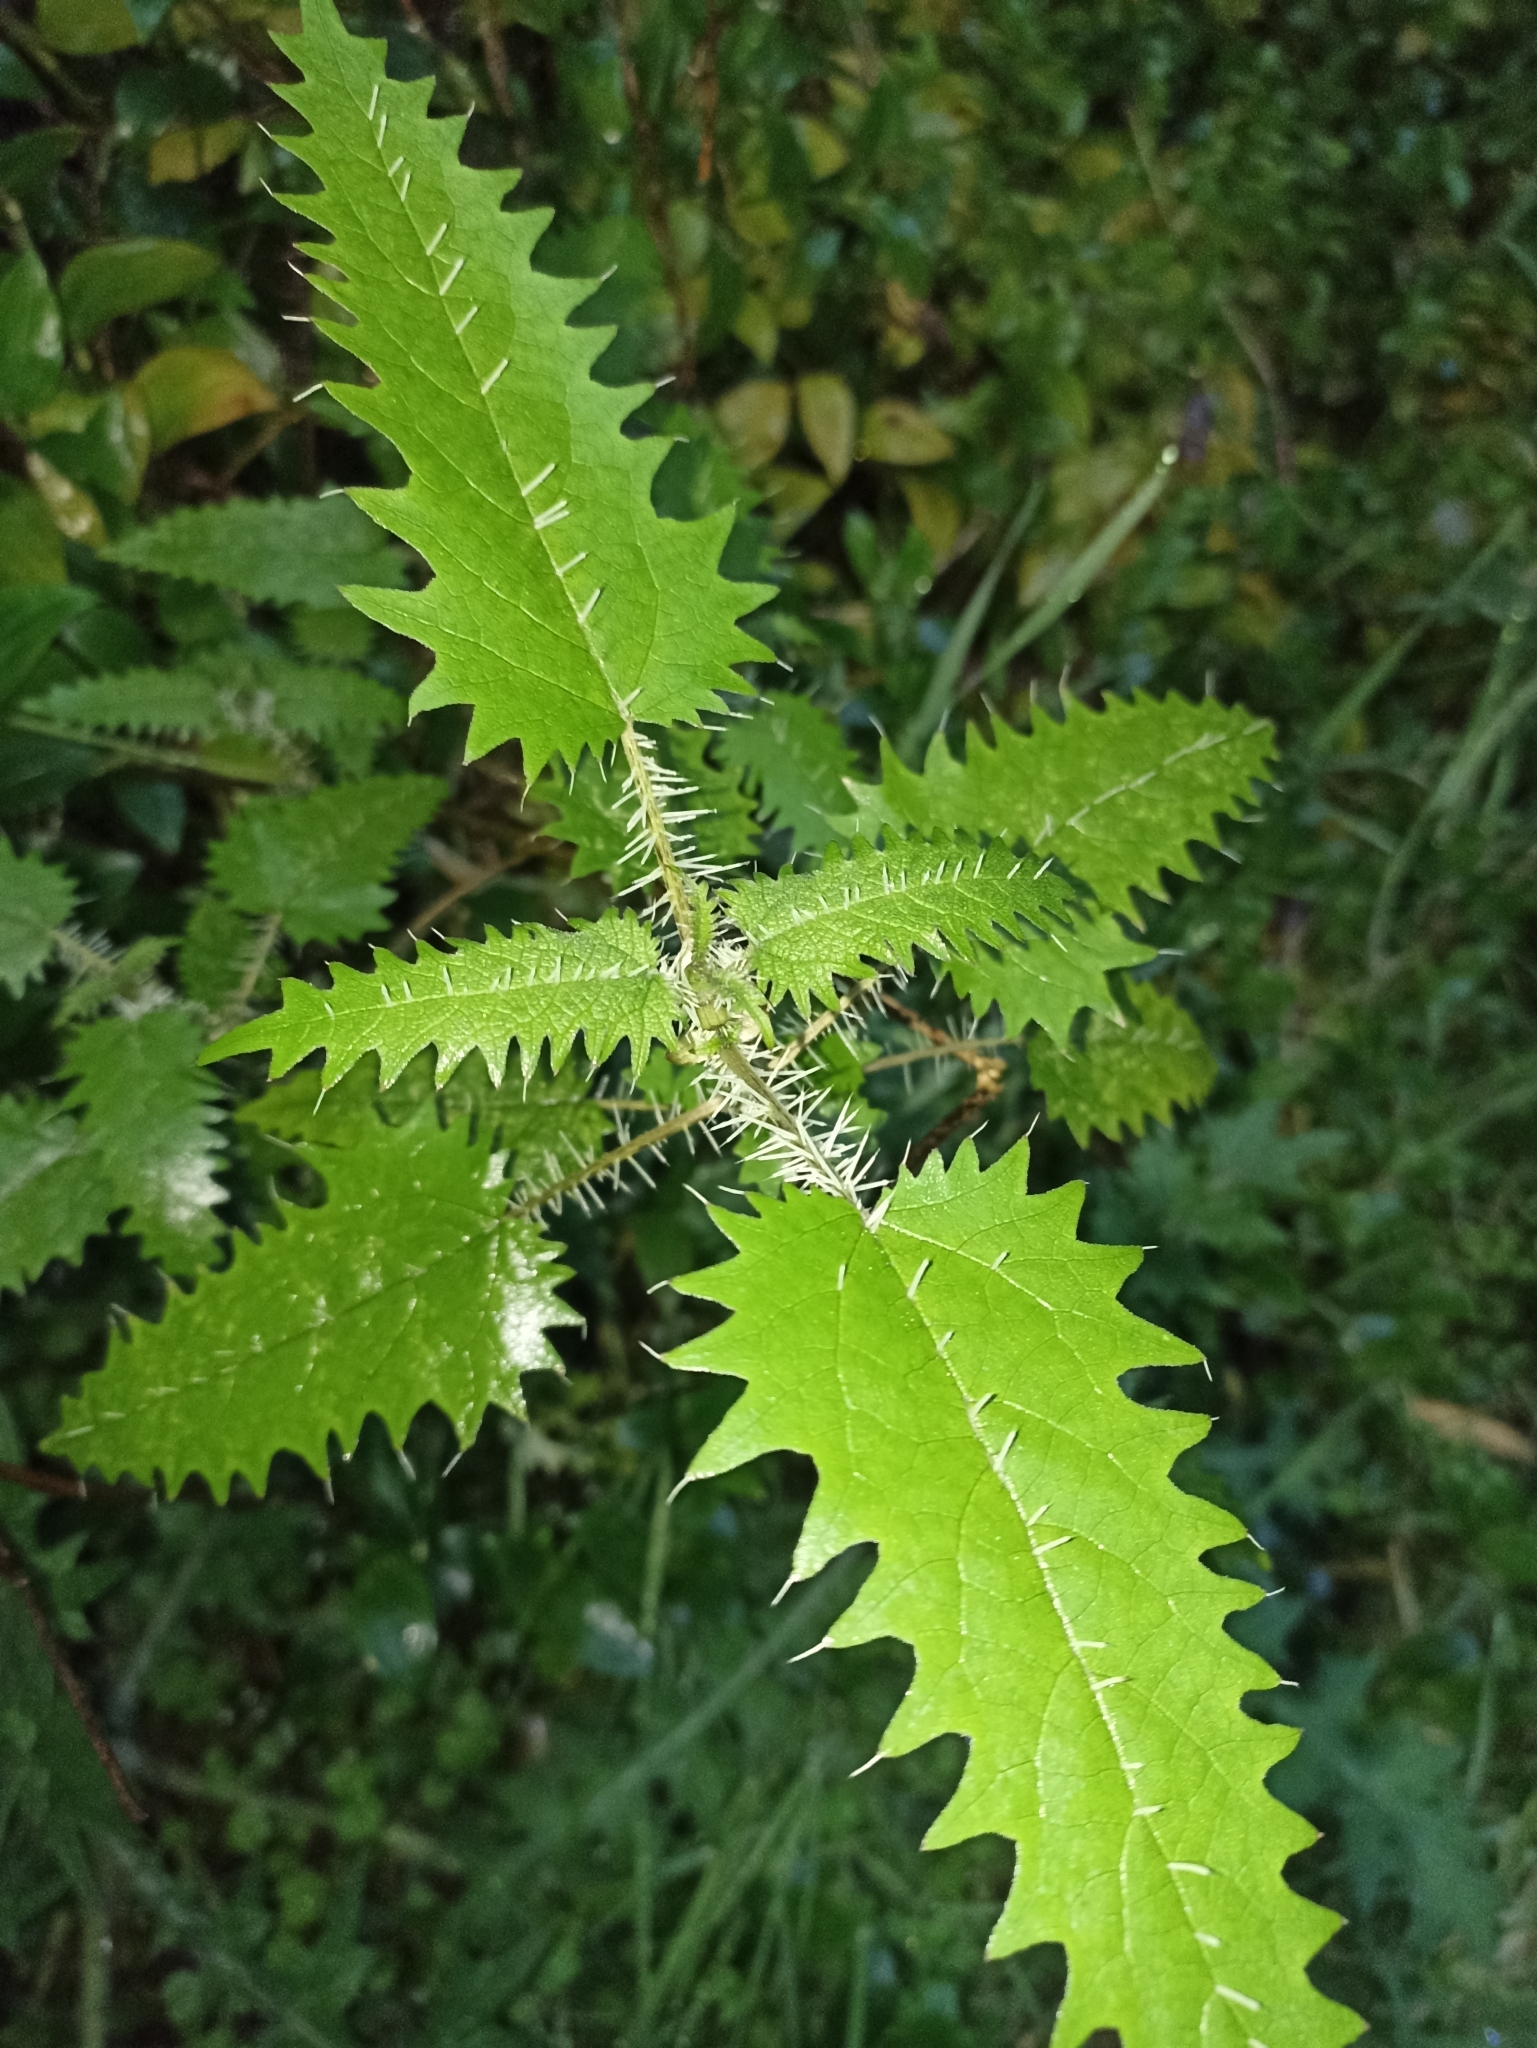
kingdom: Plantae
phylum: Tracheophyta
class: Magnoliopsida
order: Rosales
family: Urticaceae
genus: Urtica
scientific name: Urtica ferox
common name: Tree nettle
